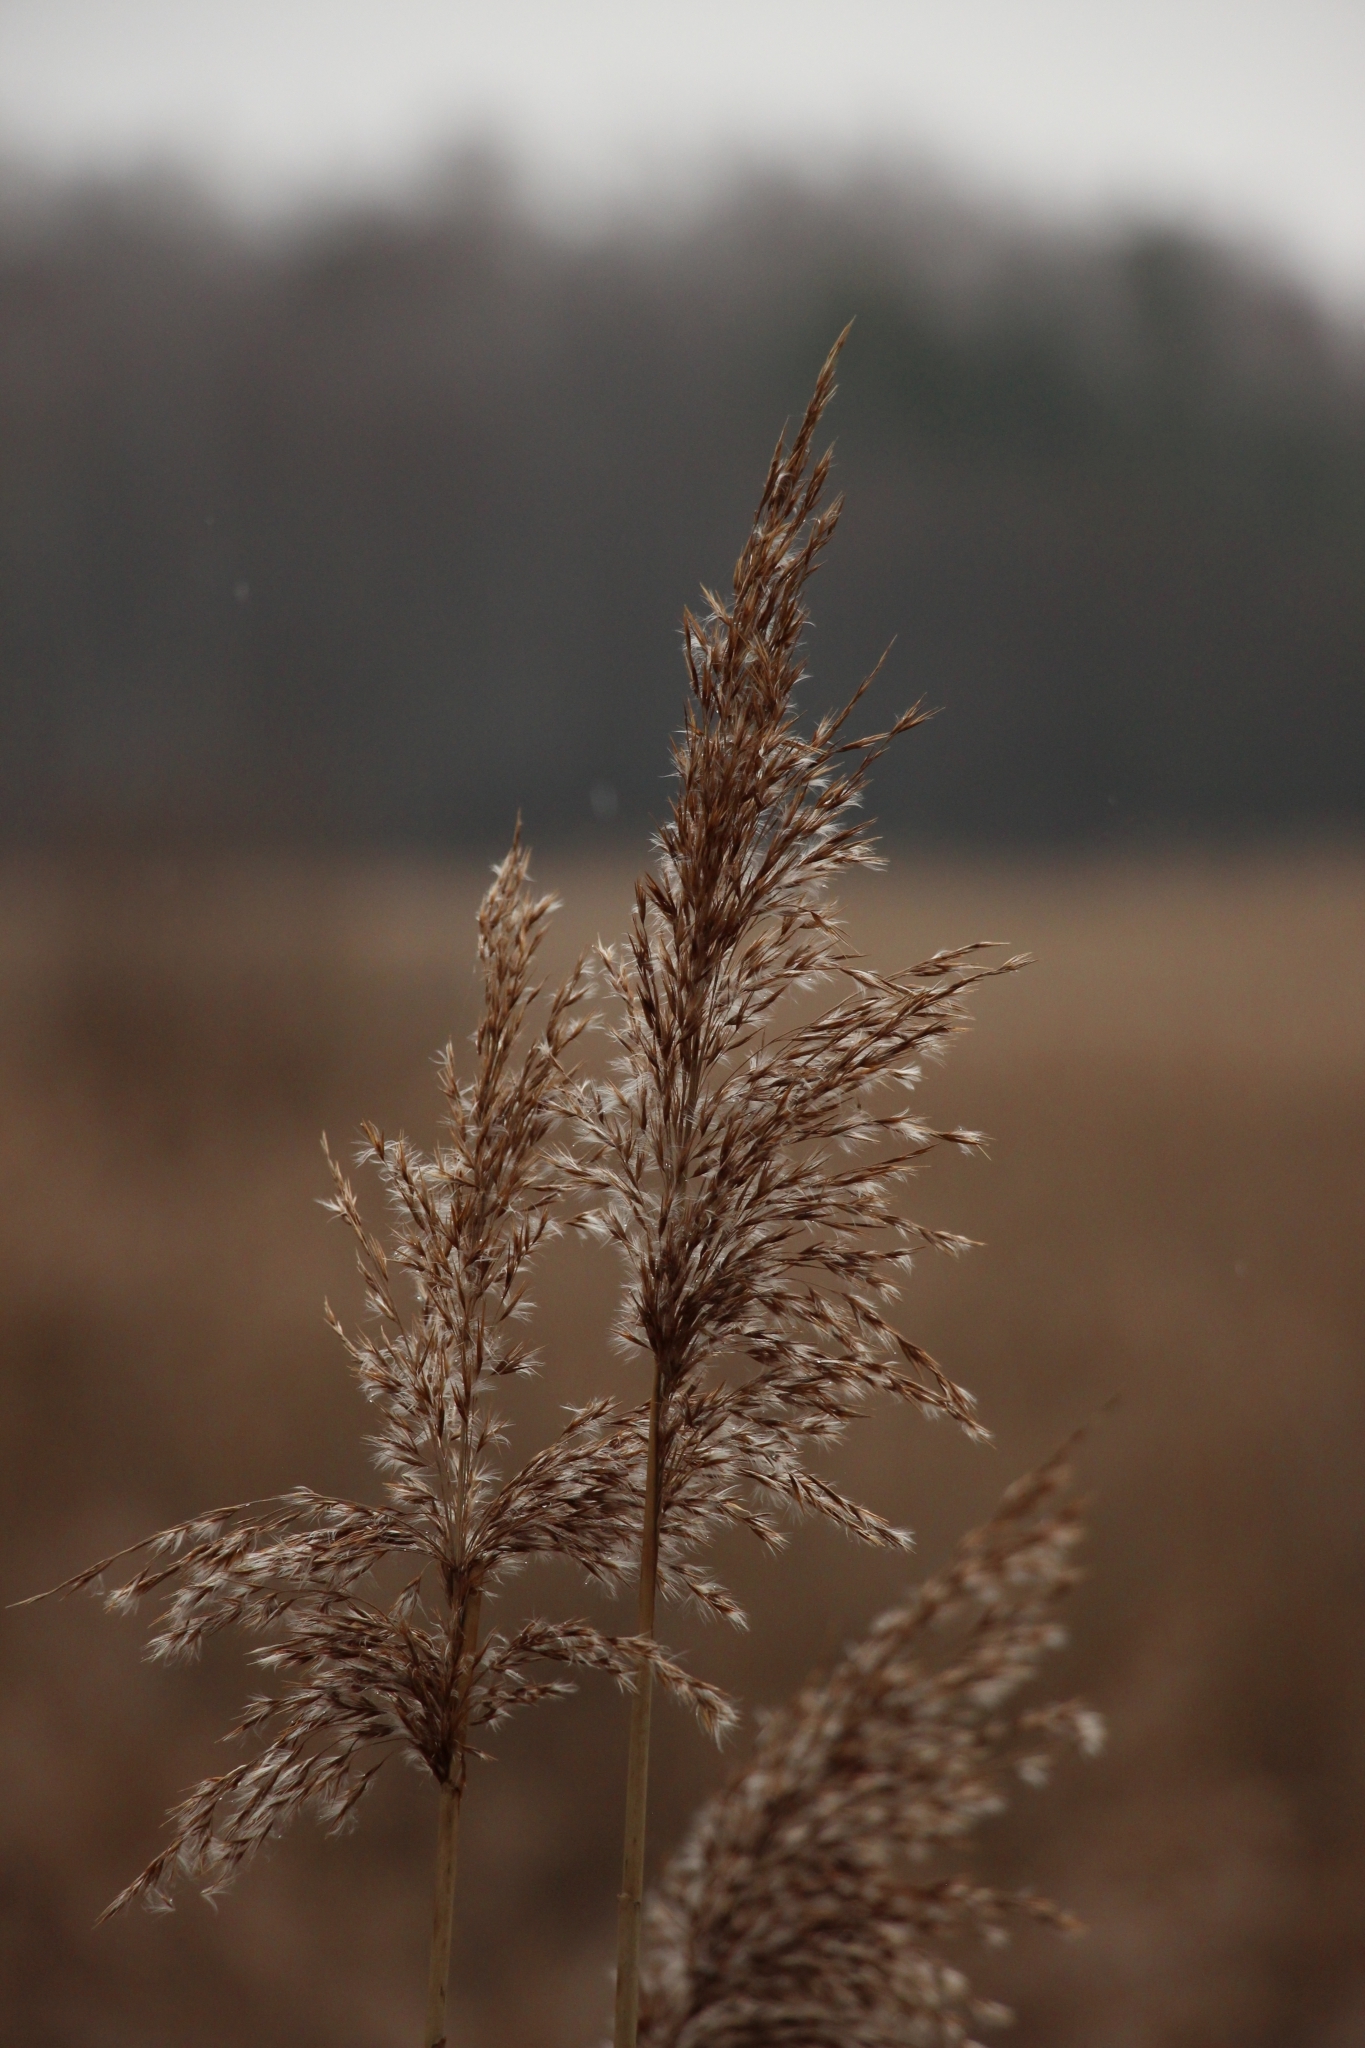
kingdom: Plantae
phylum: Tracheophyta
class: Liliopsida
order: Poales
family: Poaceae
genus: Phragmites
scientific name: Phragmites australis
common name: Common reed
